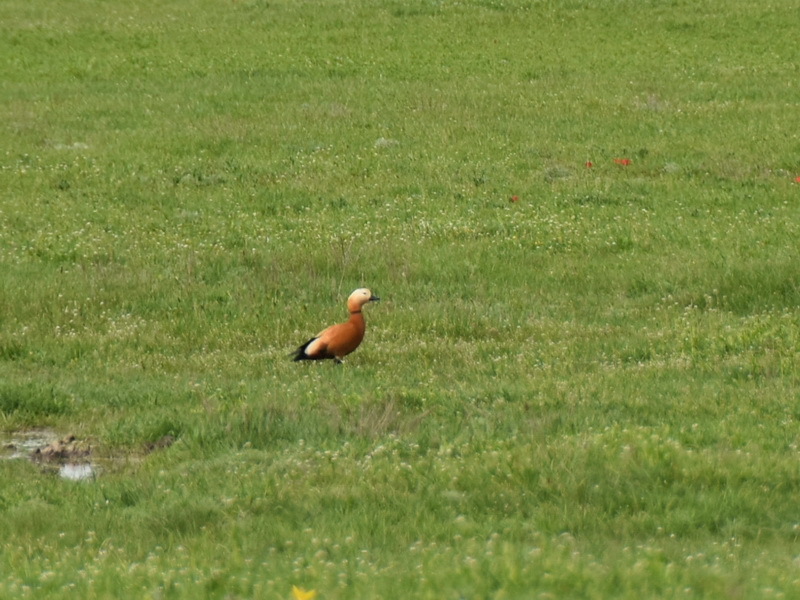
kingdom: Animalia
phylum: Chordata
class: Aves
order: Anseriformes
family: Anatidae
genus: Tadorna
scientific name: Tadorna ferruginea
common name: Ruddy shelduck
